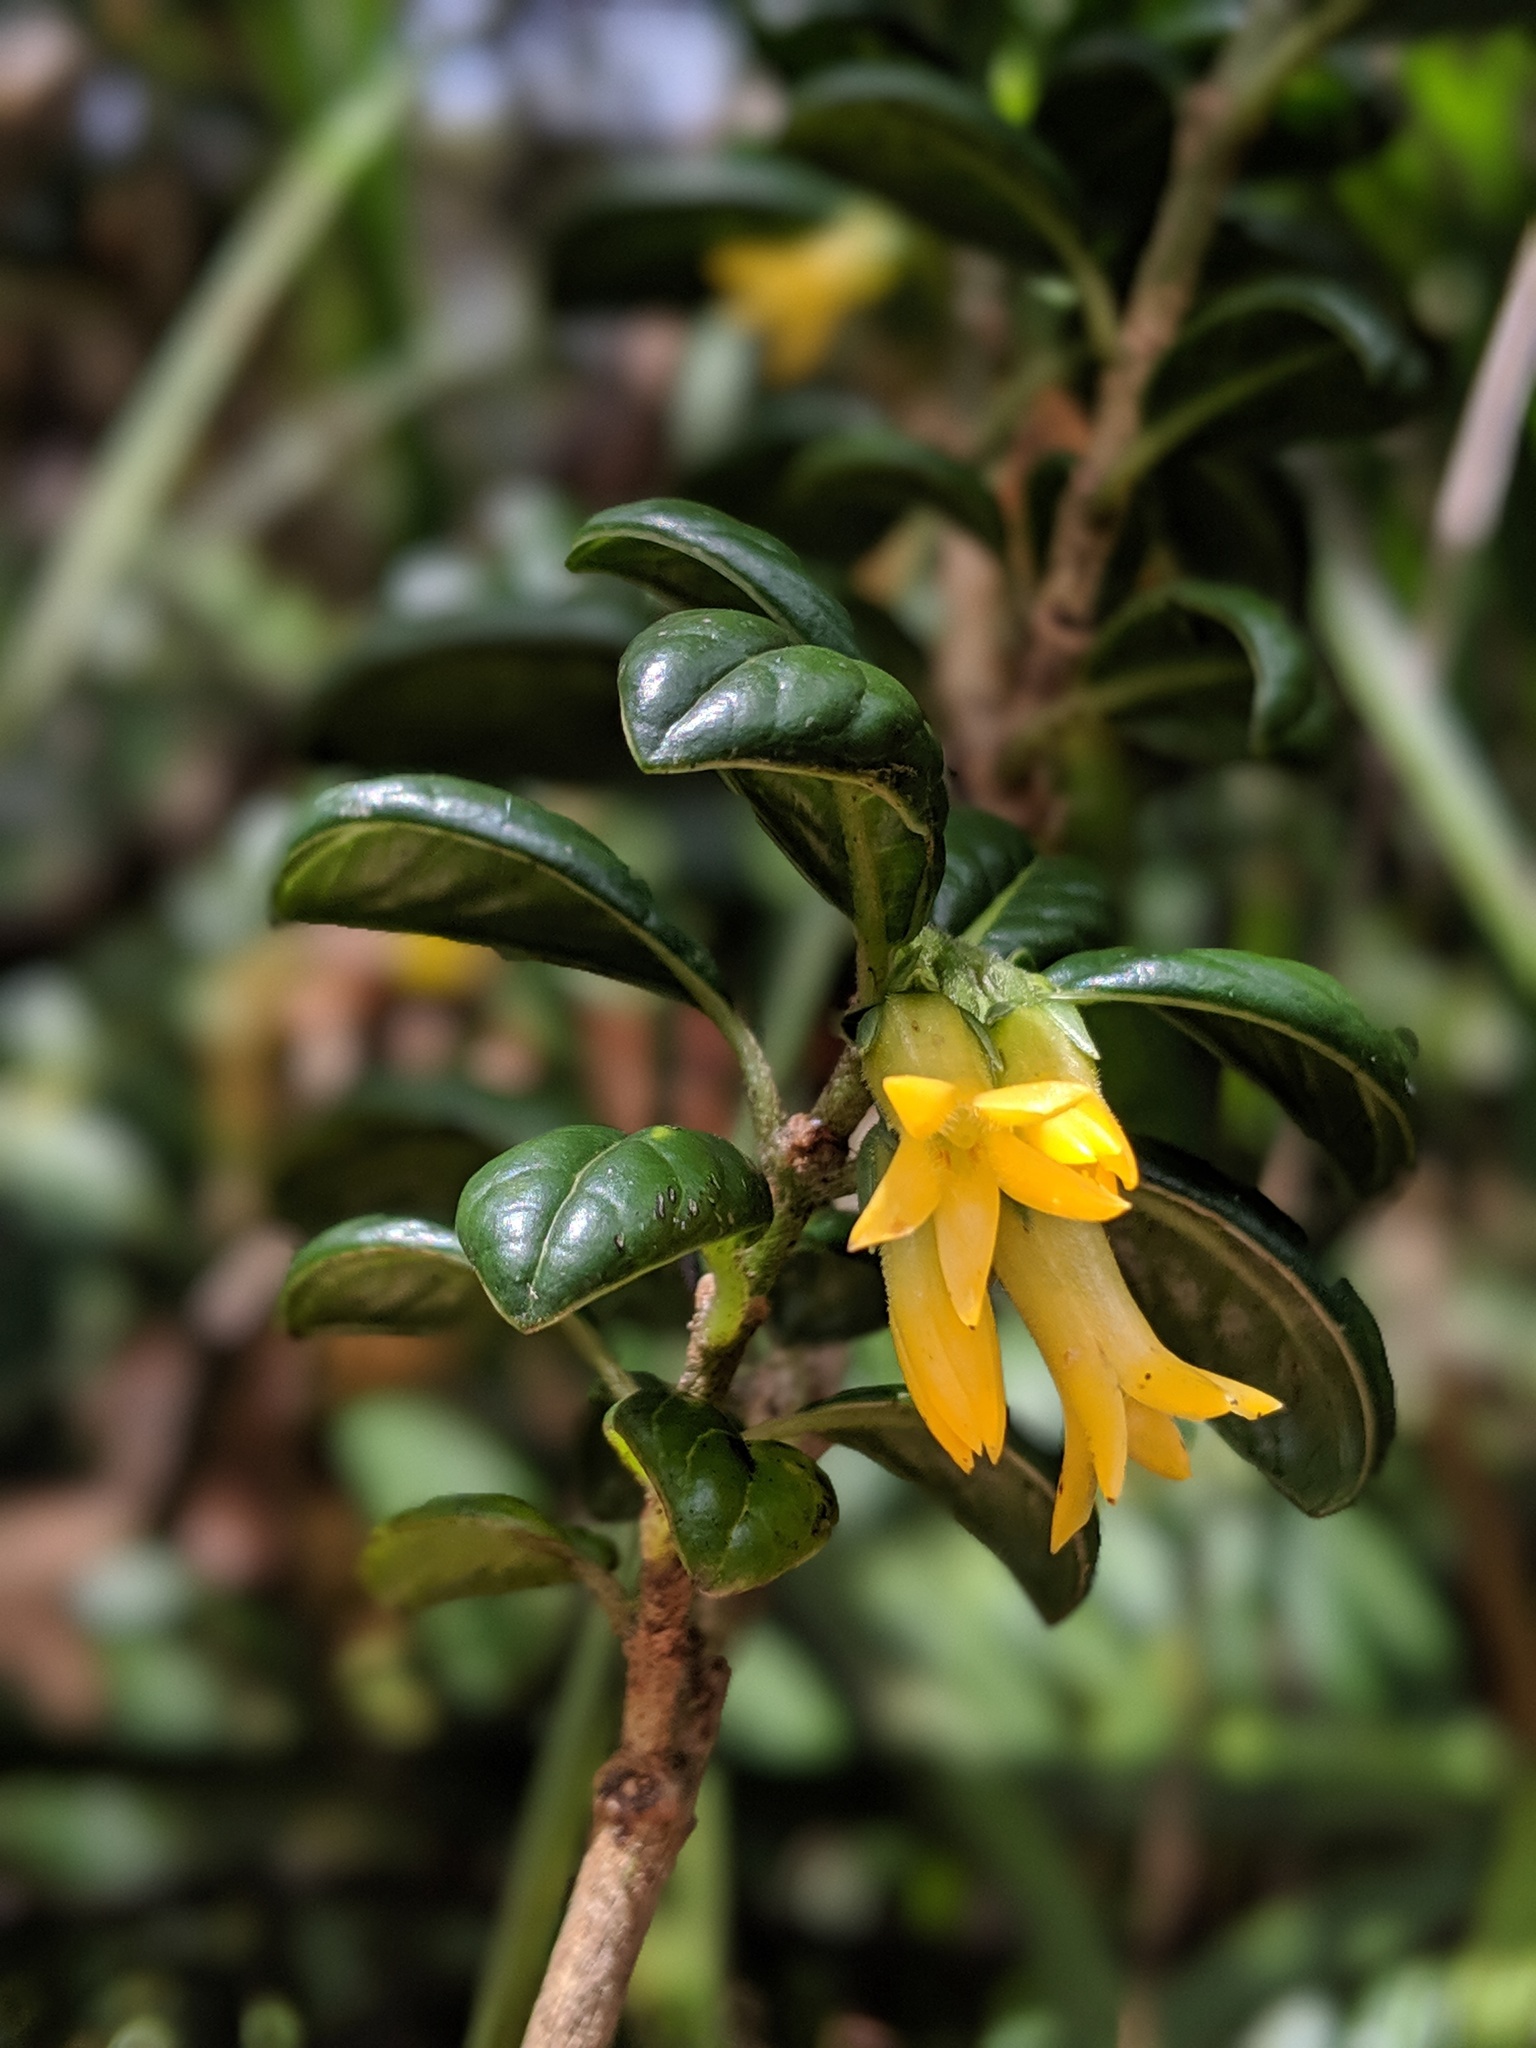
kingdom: Plantae
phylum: Tracheophyta
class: Magnoliopsida
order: Gentianales
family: Loganiaceae
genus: Geniostoma
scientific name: Geniostoma waialealae
